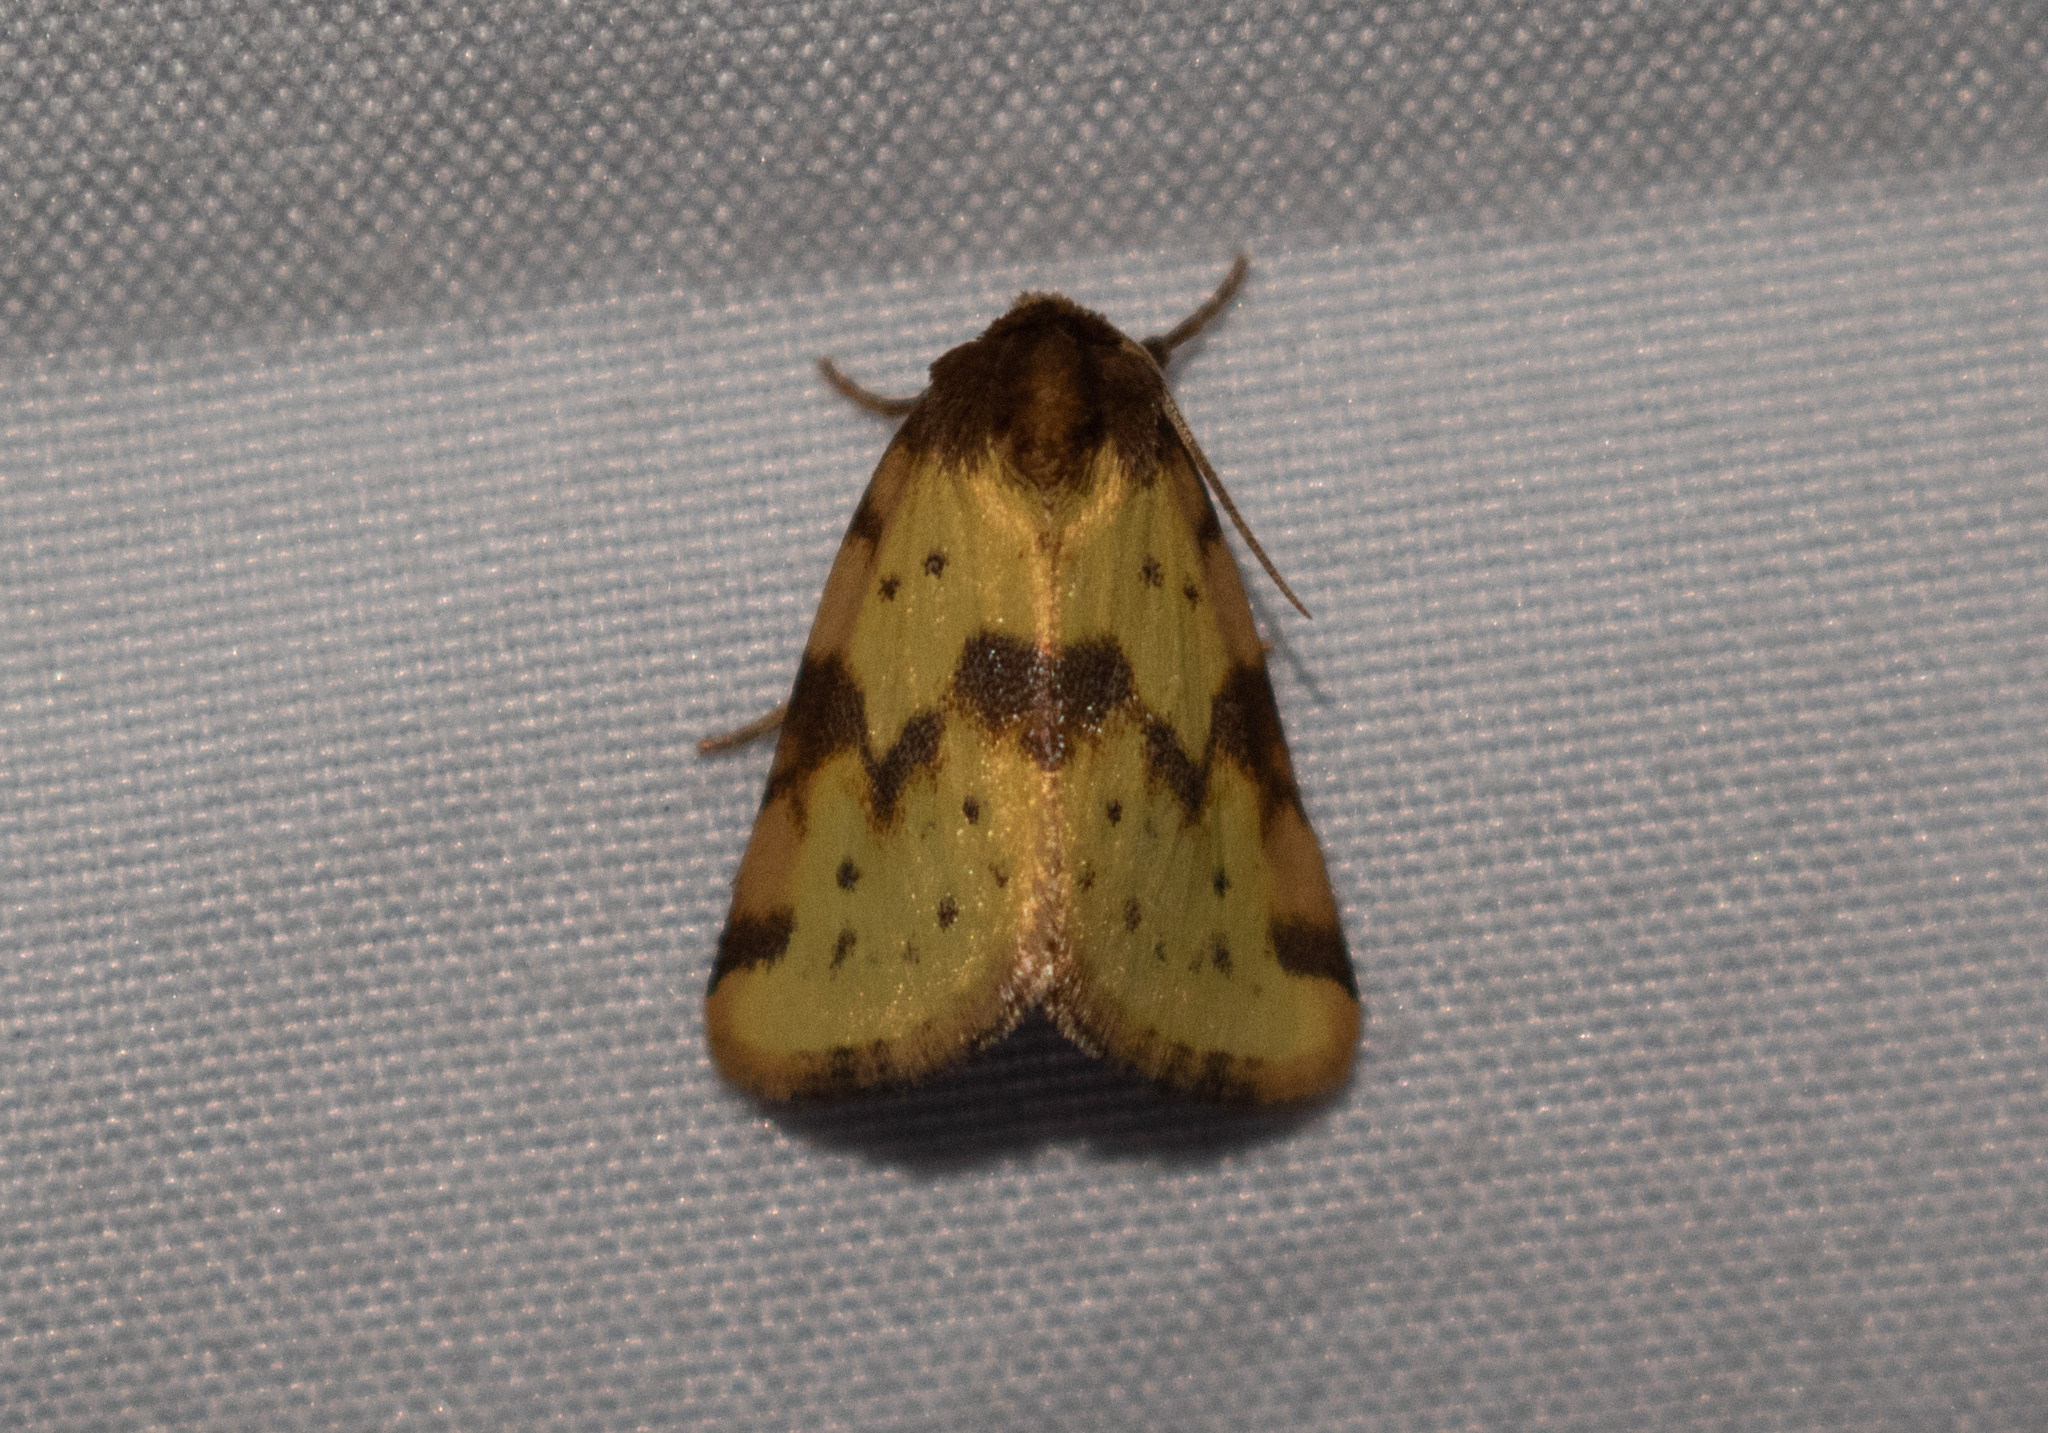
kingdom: Animalia
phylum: Arthropoda
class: Insecta
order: Lepidoptera
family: Noctuidae
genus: Azenia
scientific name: Azenia obtusa
